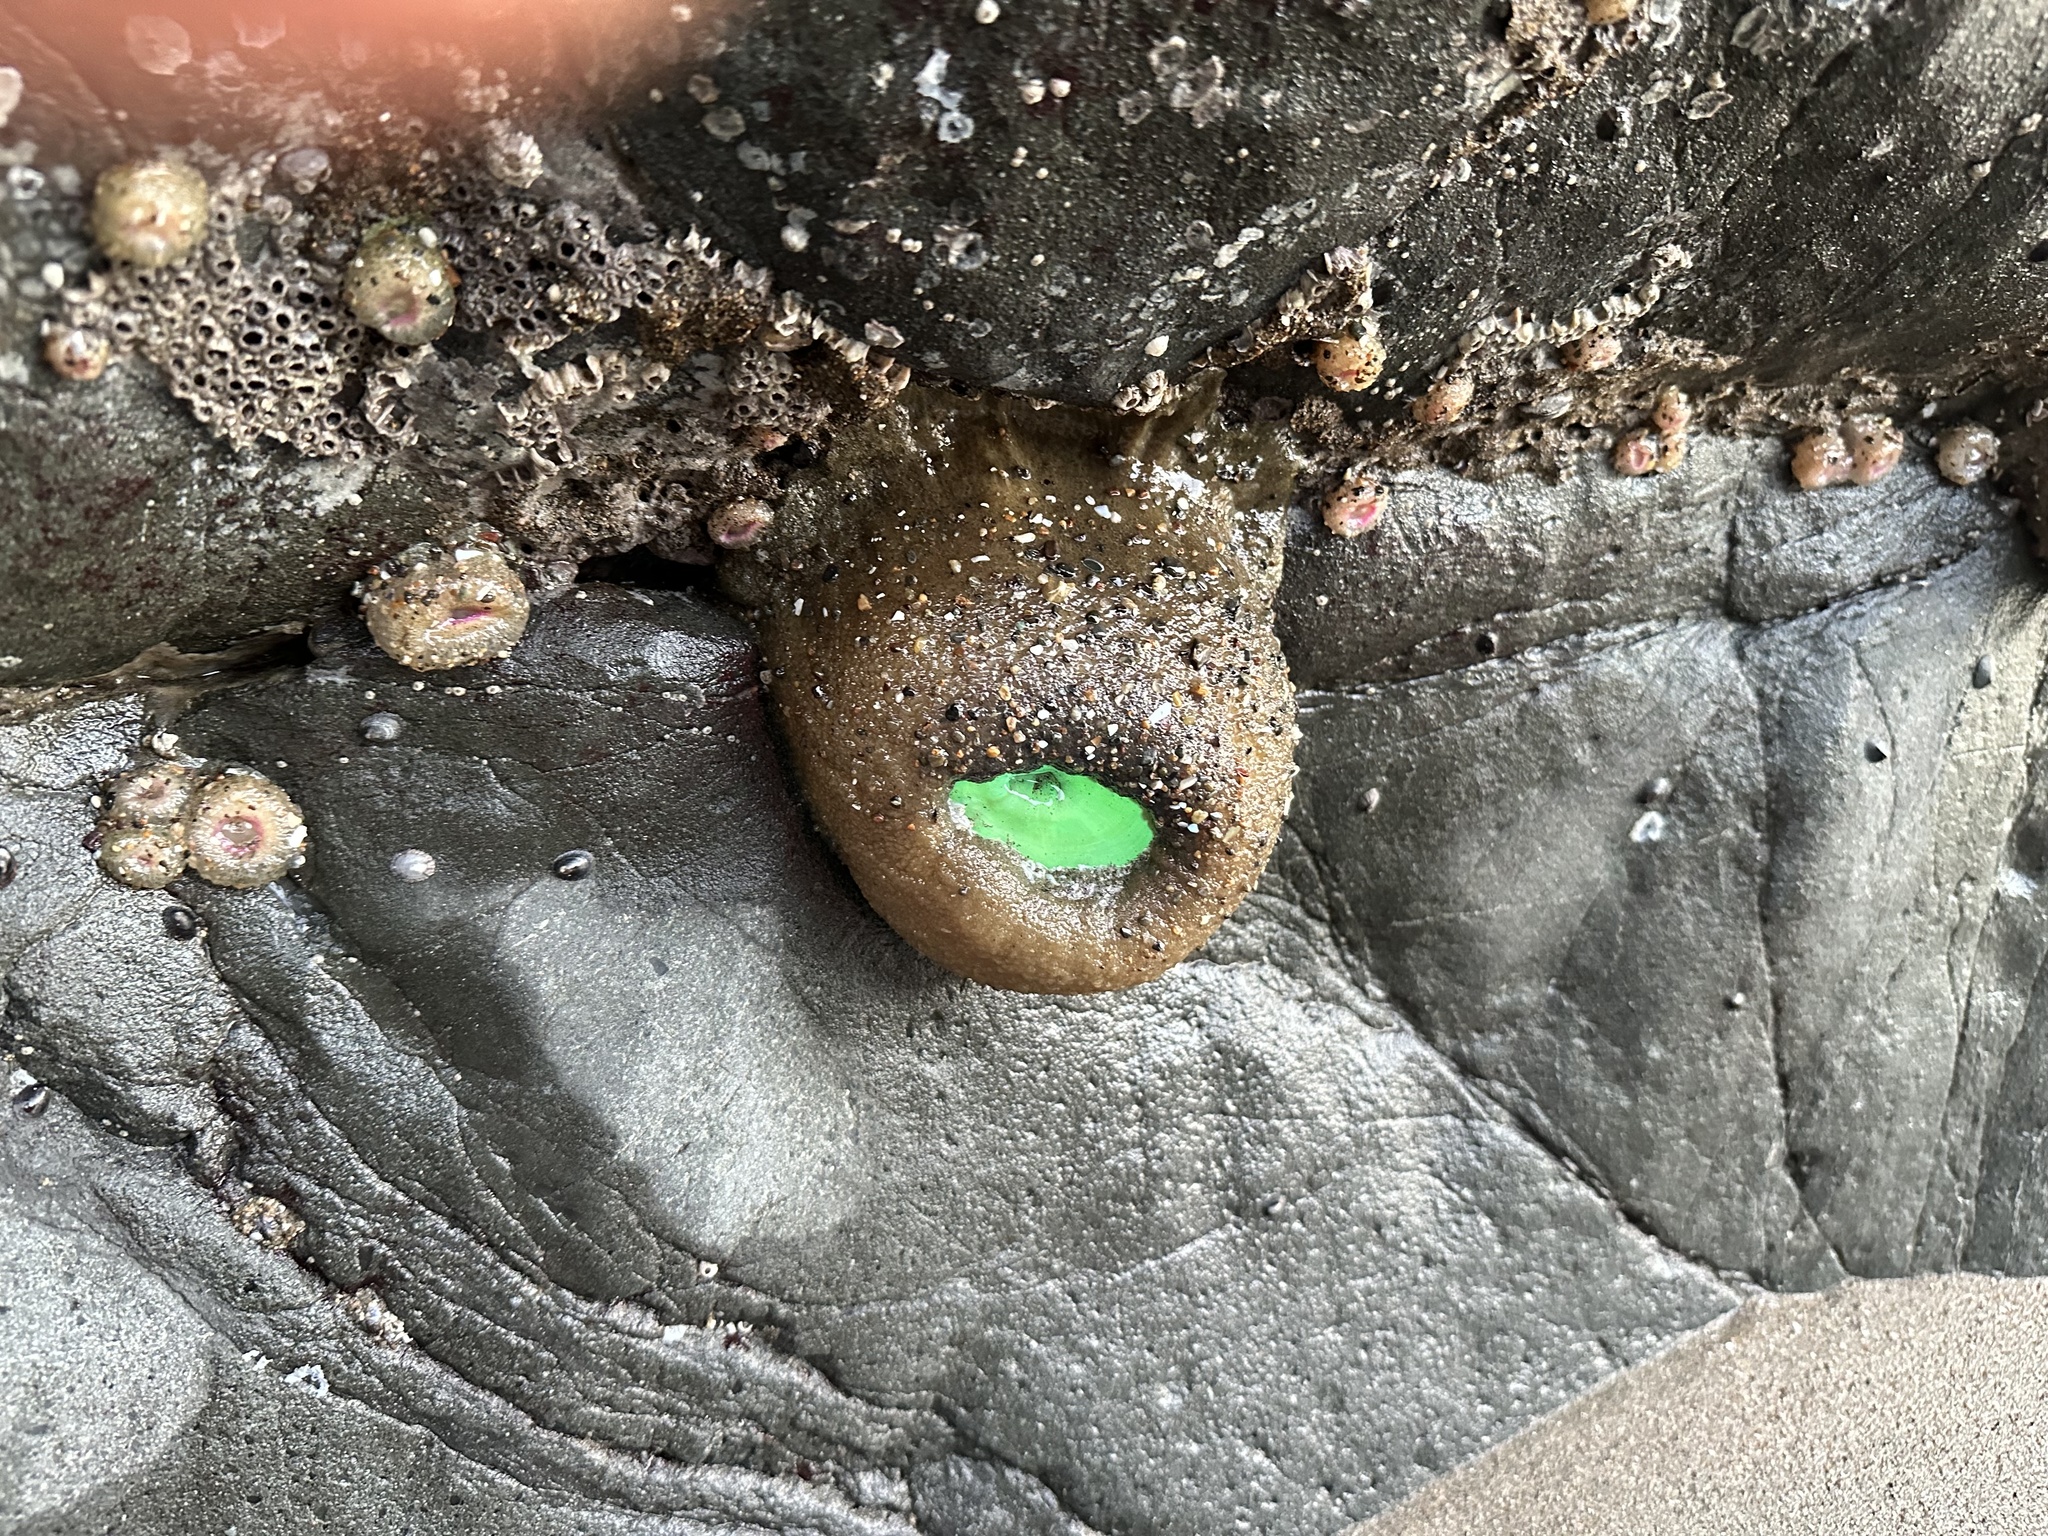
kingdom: Animalia
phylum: Cnidaria
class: Anthozoa
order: Actiniaria
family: Actiniidae
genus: Anthopleura
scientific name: Anthopleura xanthogrammica
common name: Giant green anemone
